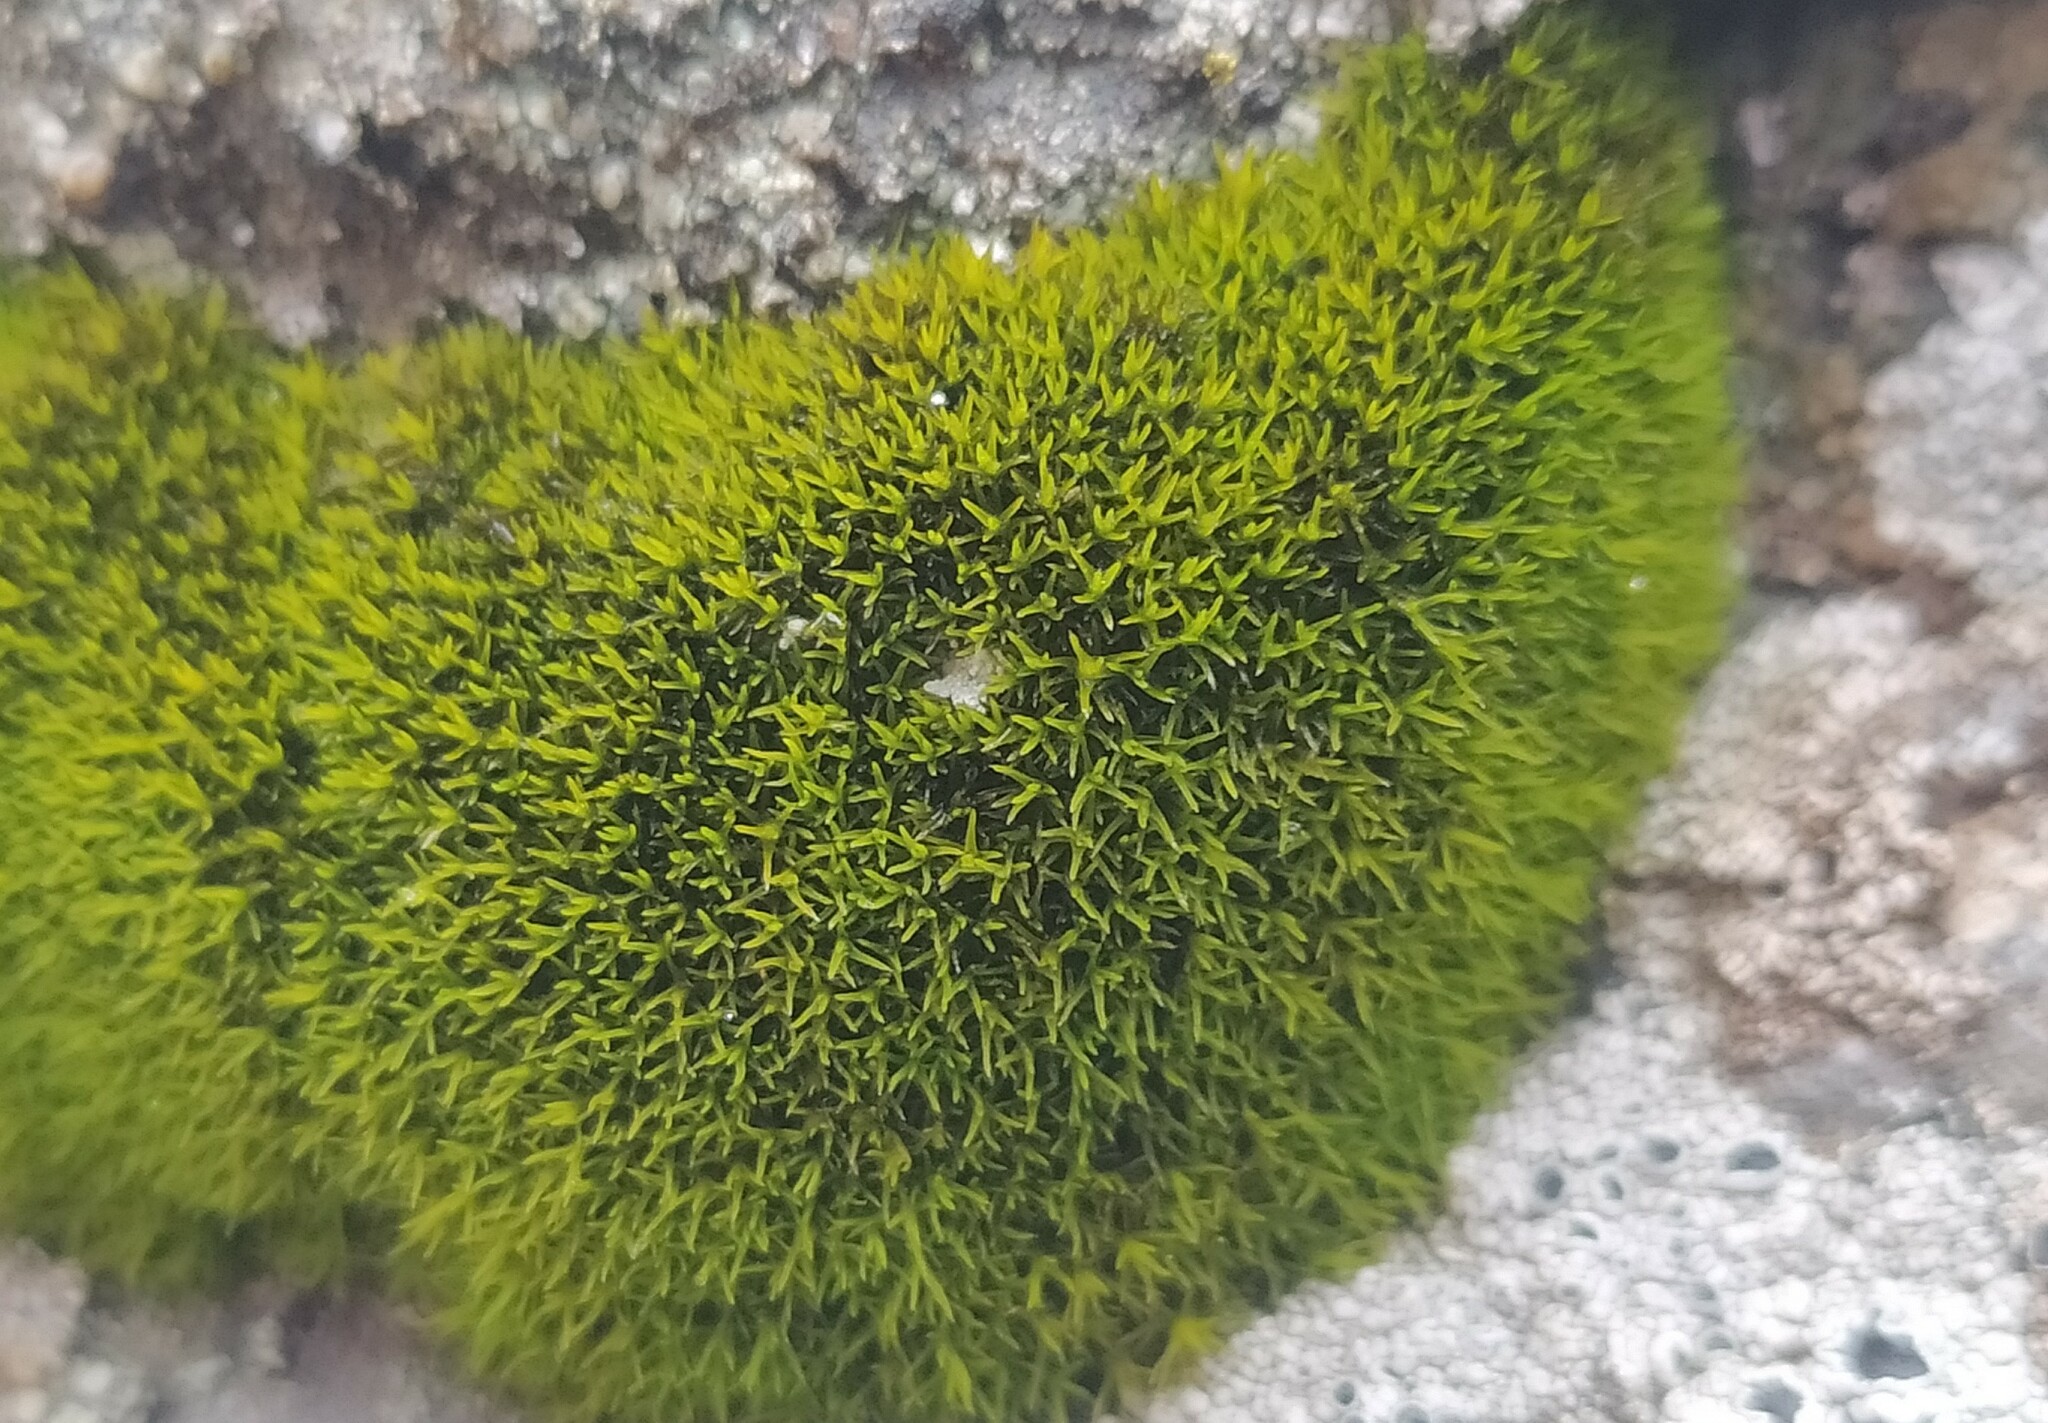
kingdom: Plantae
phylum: Bryophyta
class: Bryopsida
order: Grimmiales
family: Grimmiaceae
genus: Grimmia
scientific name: Grimmia incurva
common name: Black grimmia
